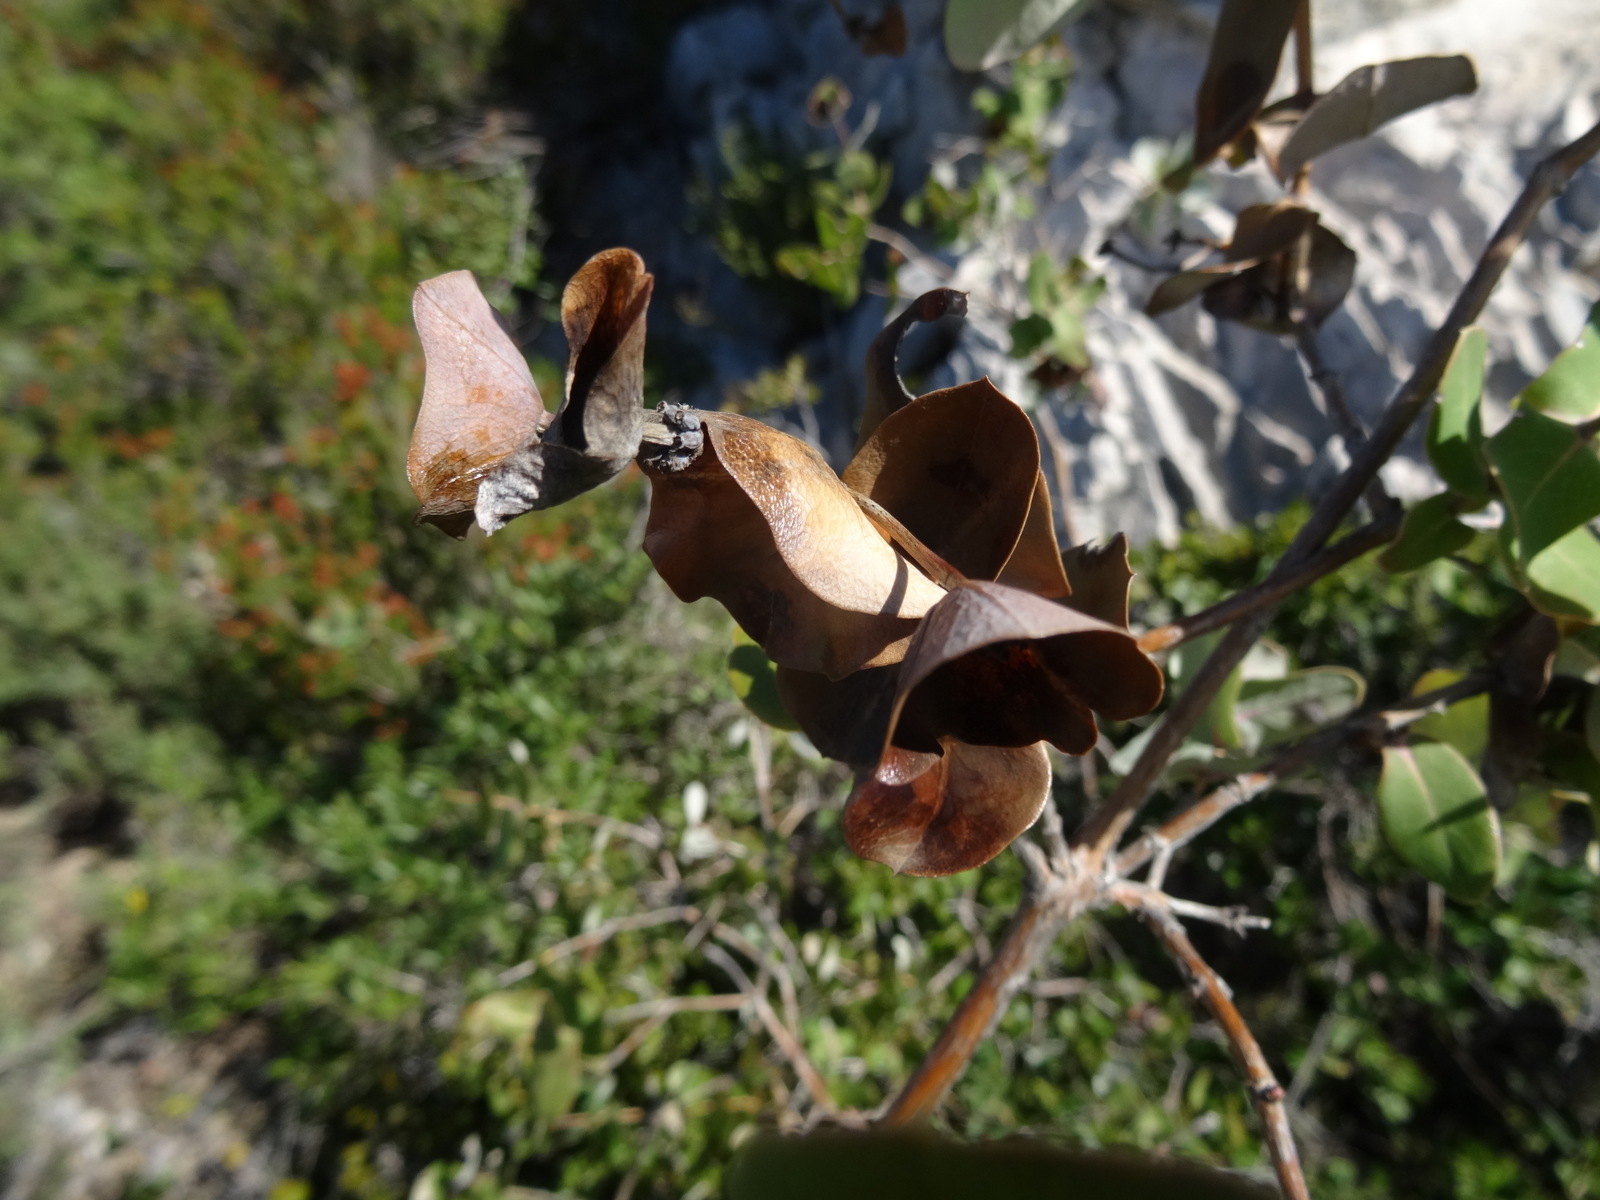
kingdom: Plantae
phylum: Tracheophyta
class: Magnoliopsida
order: Dipsacales
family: Caprifoliaceae
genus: Lonicera
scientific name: Lonicera implexa
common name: Minorca honeysuckle
